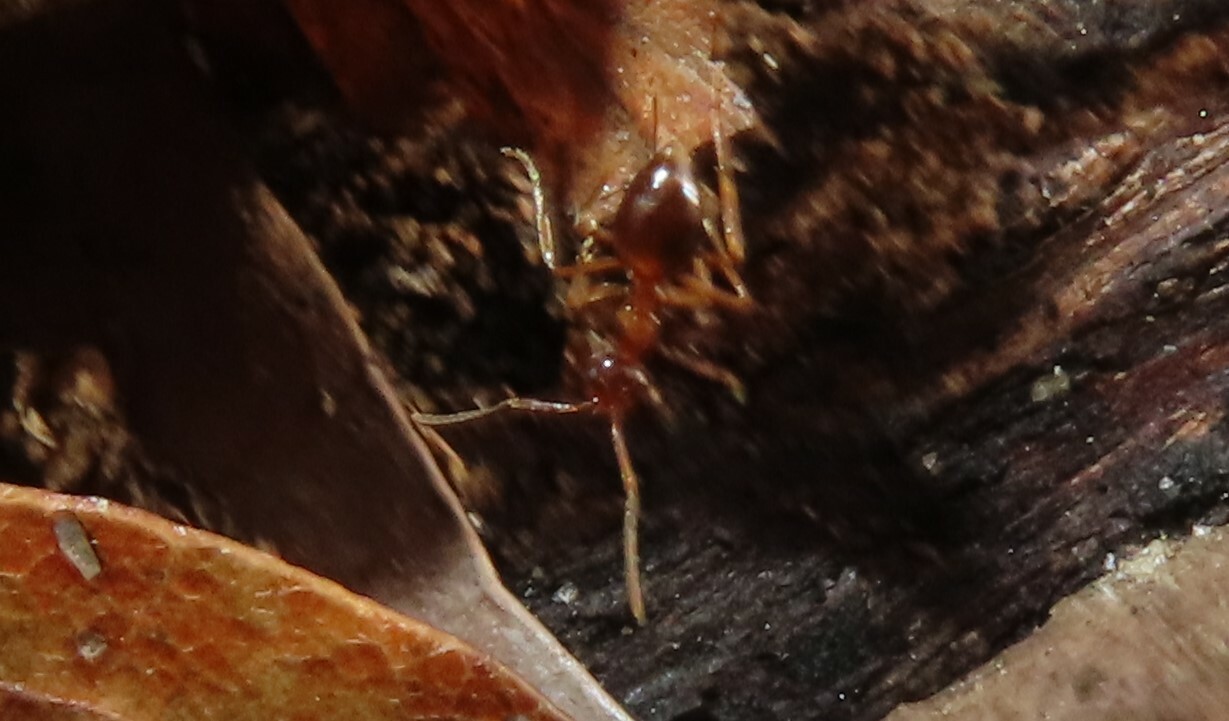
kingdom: Animalia
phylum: Arthropoda
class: Insecta
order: Hymenoptera
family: Formicidae
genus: Prenolepis
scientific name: Prenolepis imparis
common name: Small honey ant
